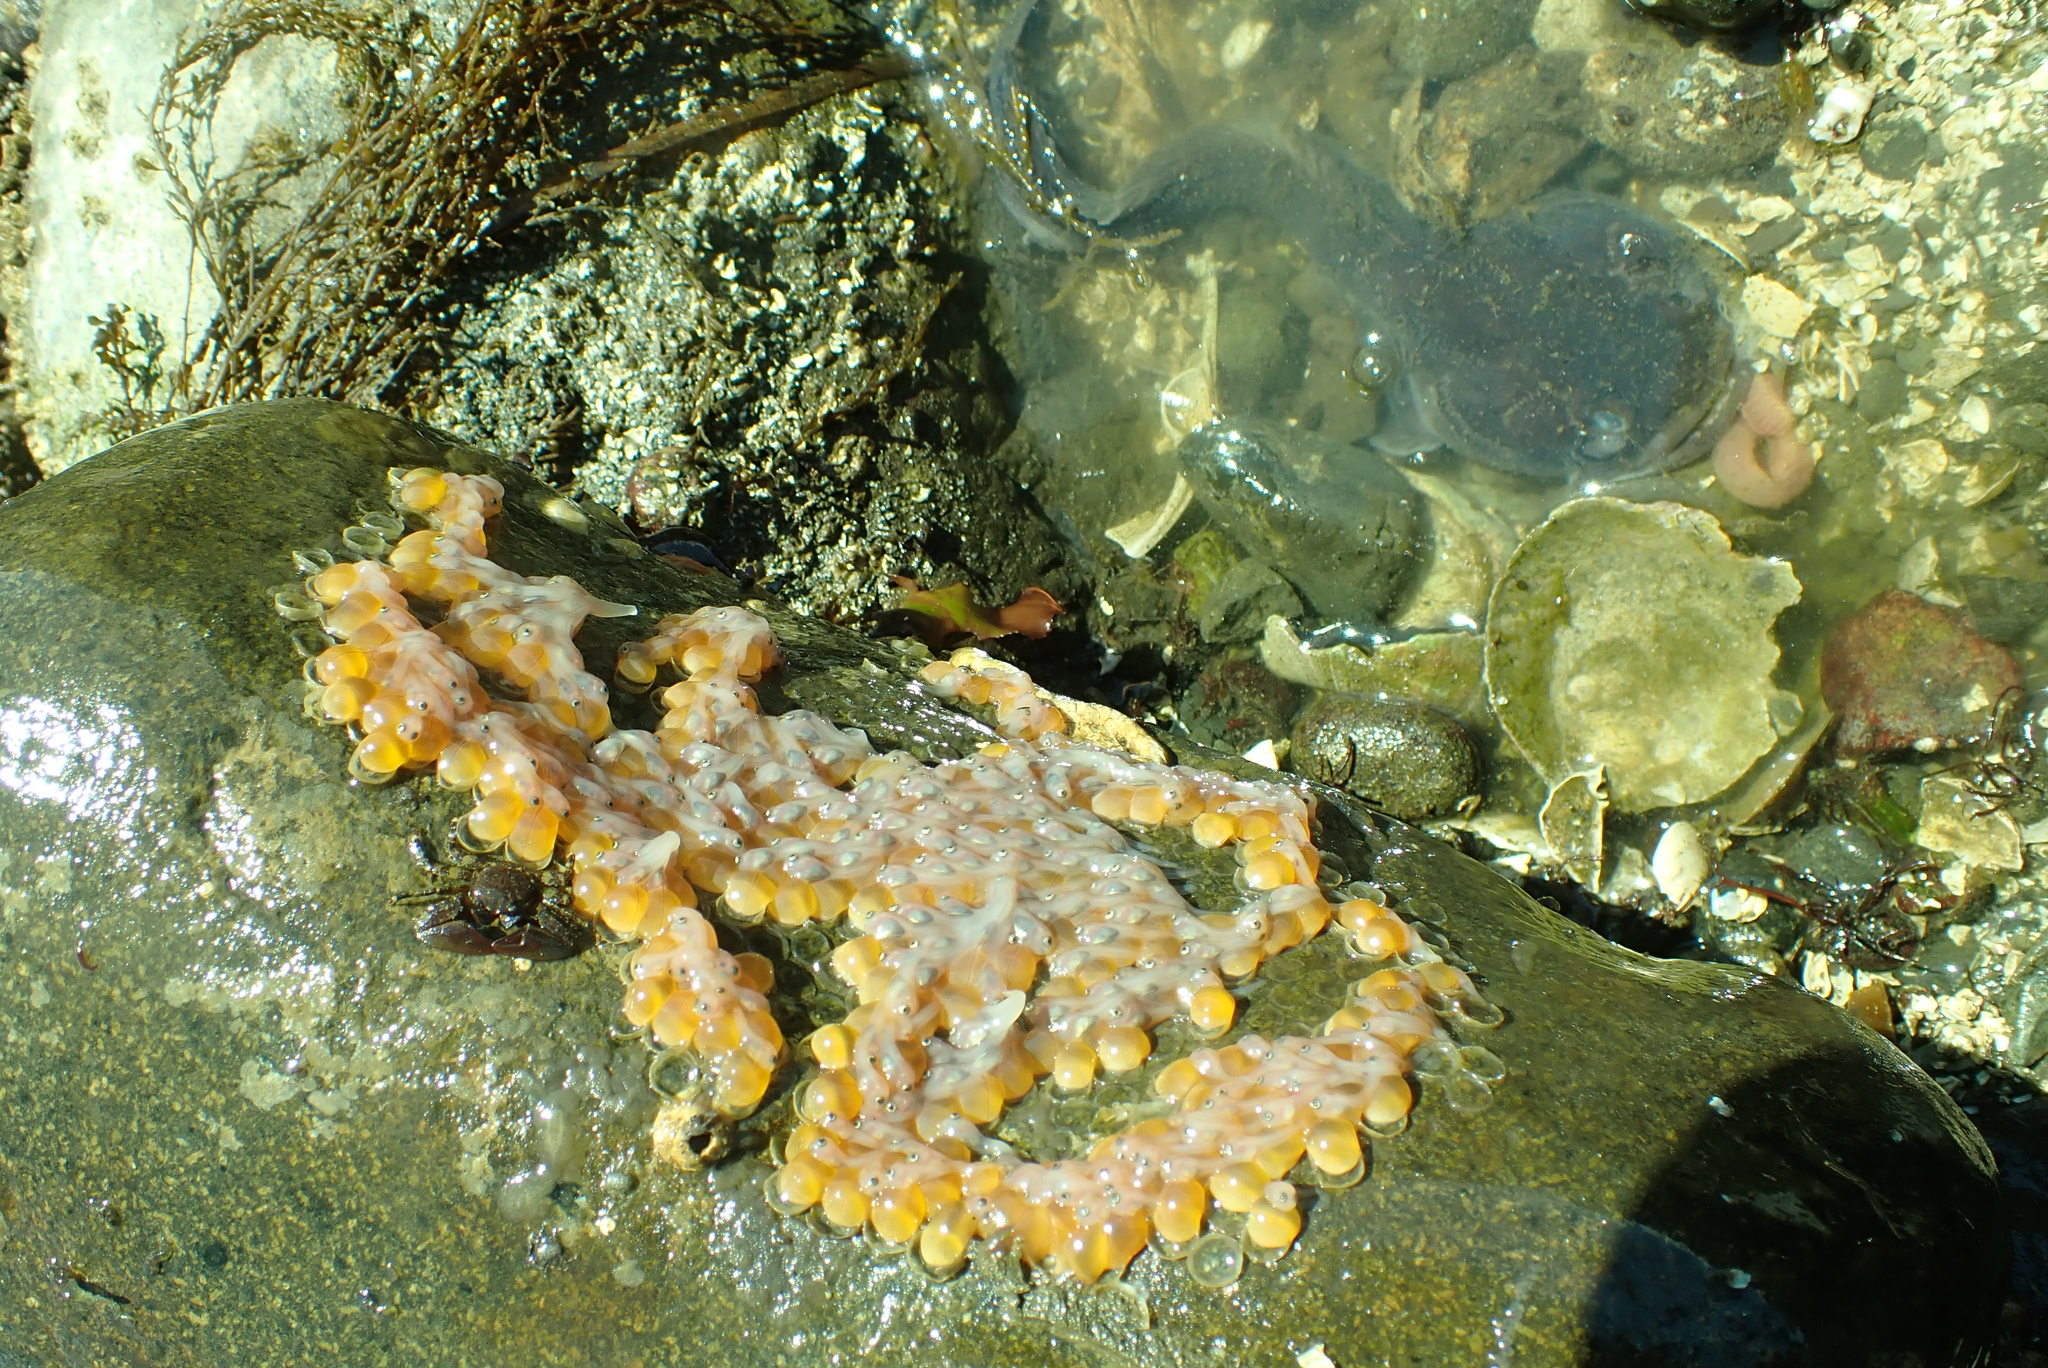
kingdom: Animalia
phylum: Chordata
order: Batrachoidiformes
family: Batrachoididae
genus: Porichthys
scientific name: Porichthys notatus
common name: Plainfin midshipman
